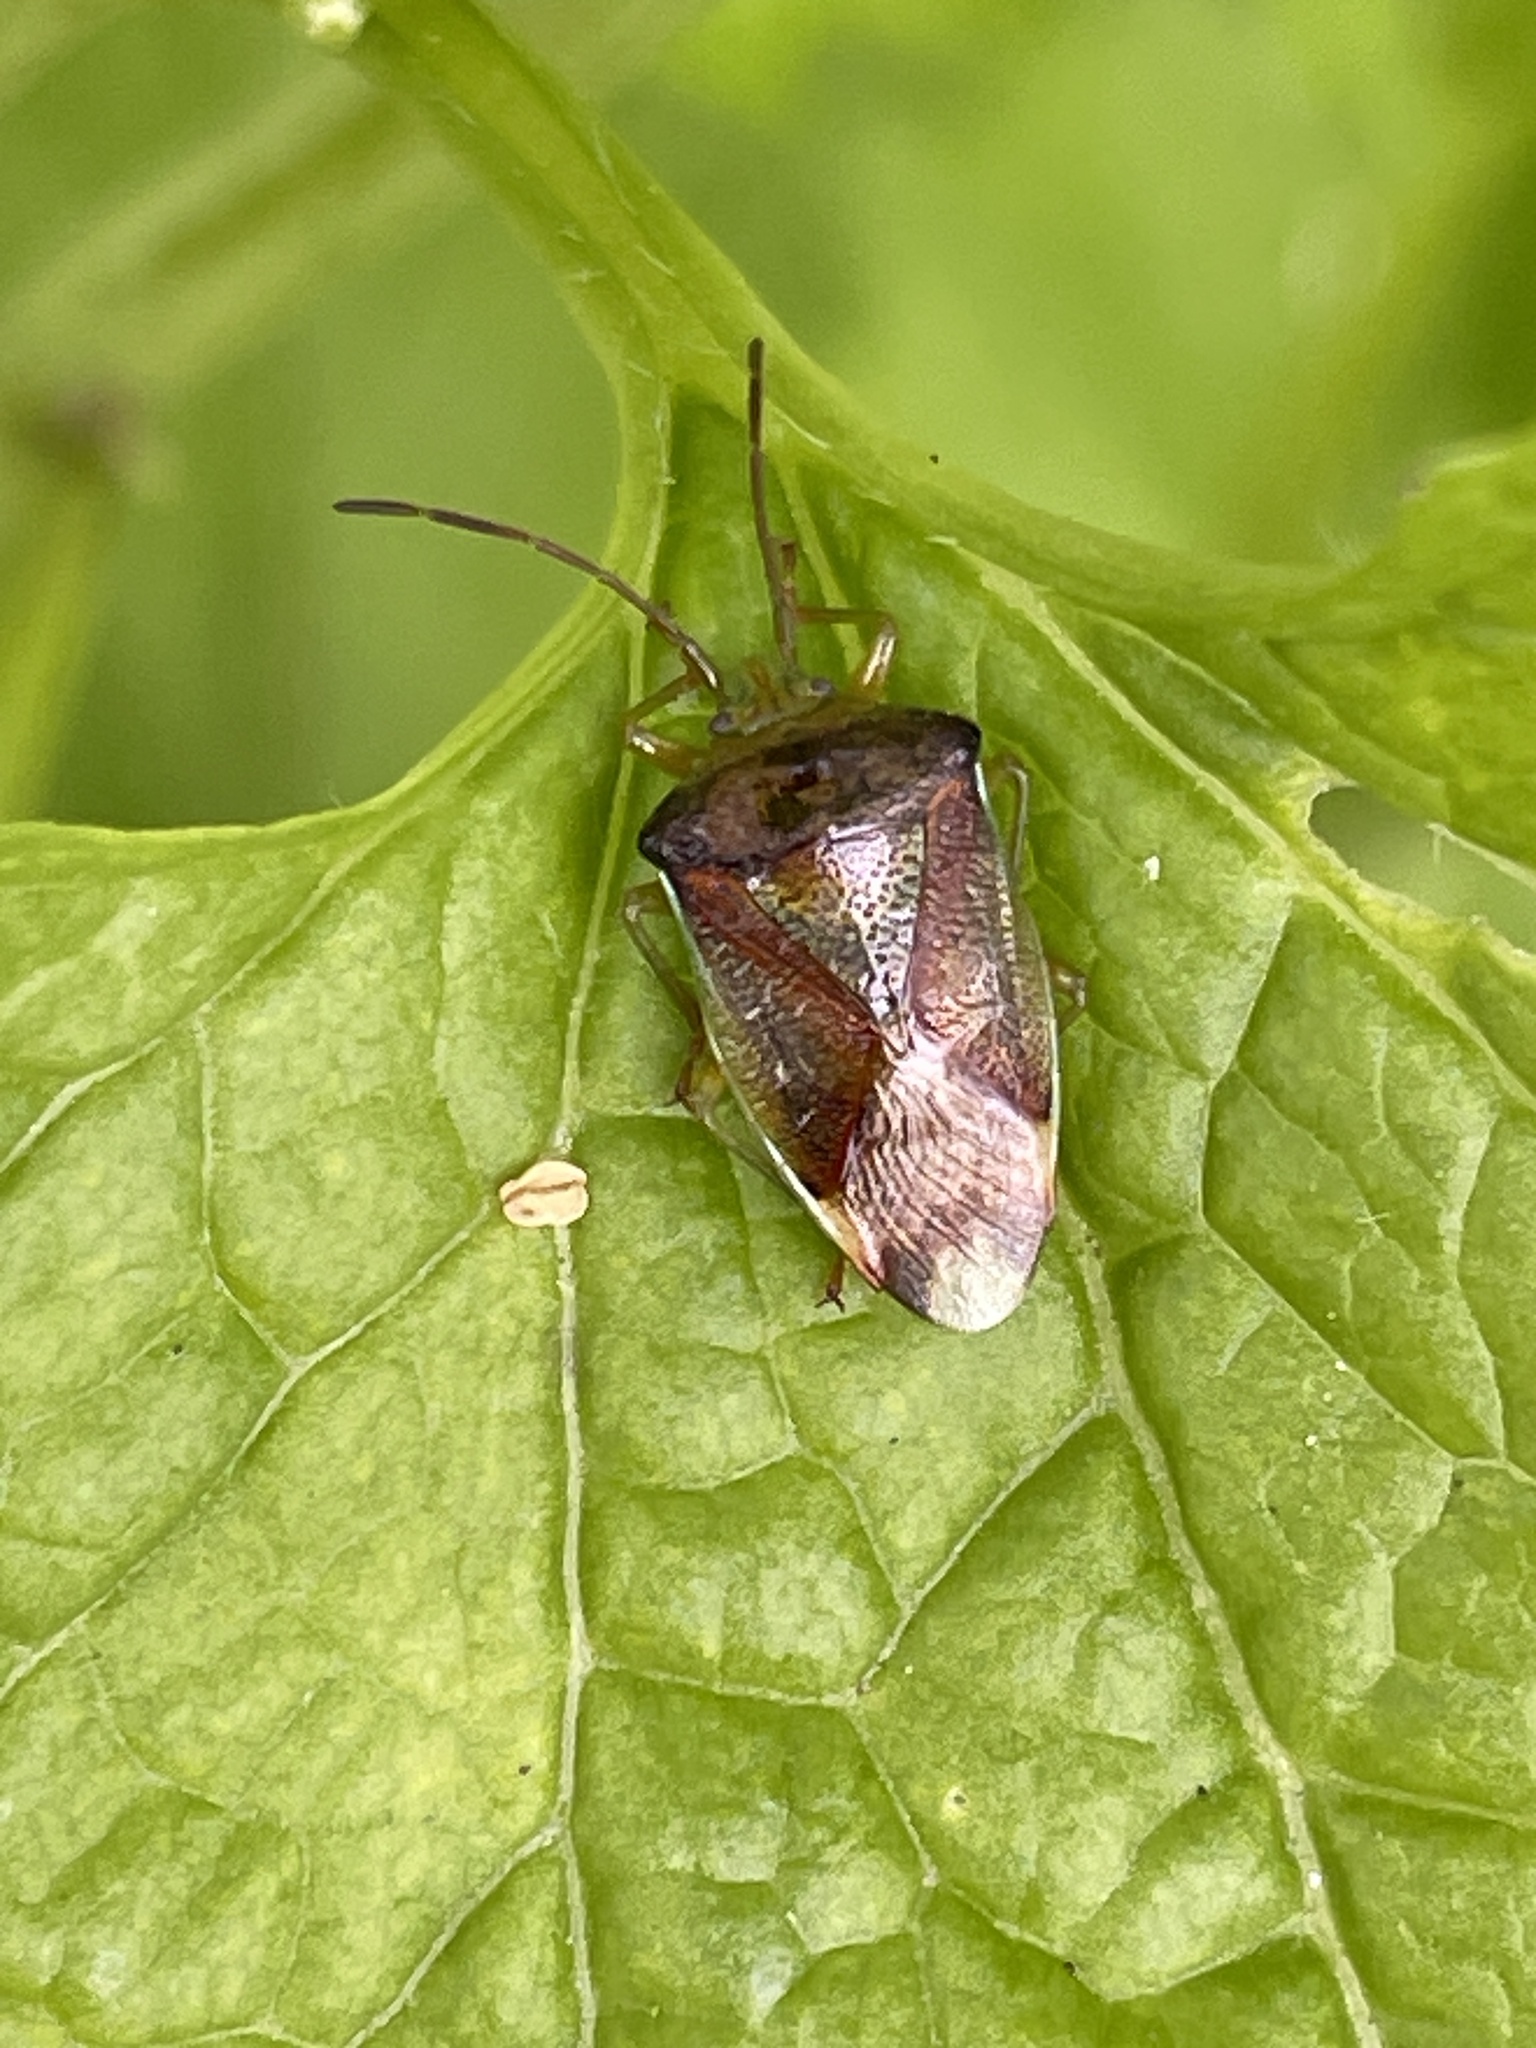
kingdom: Animalia
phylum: Arthropoda
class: Insecta
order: Hemiptera
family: Acanthosomatidae
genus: Elasmostethus
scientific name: Elasmostethus interstinctus
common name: Birch shieldbug
